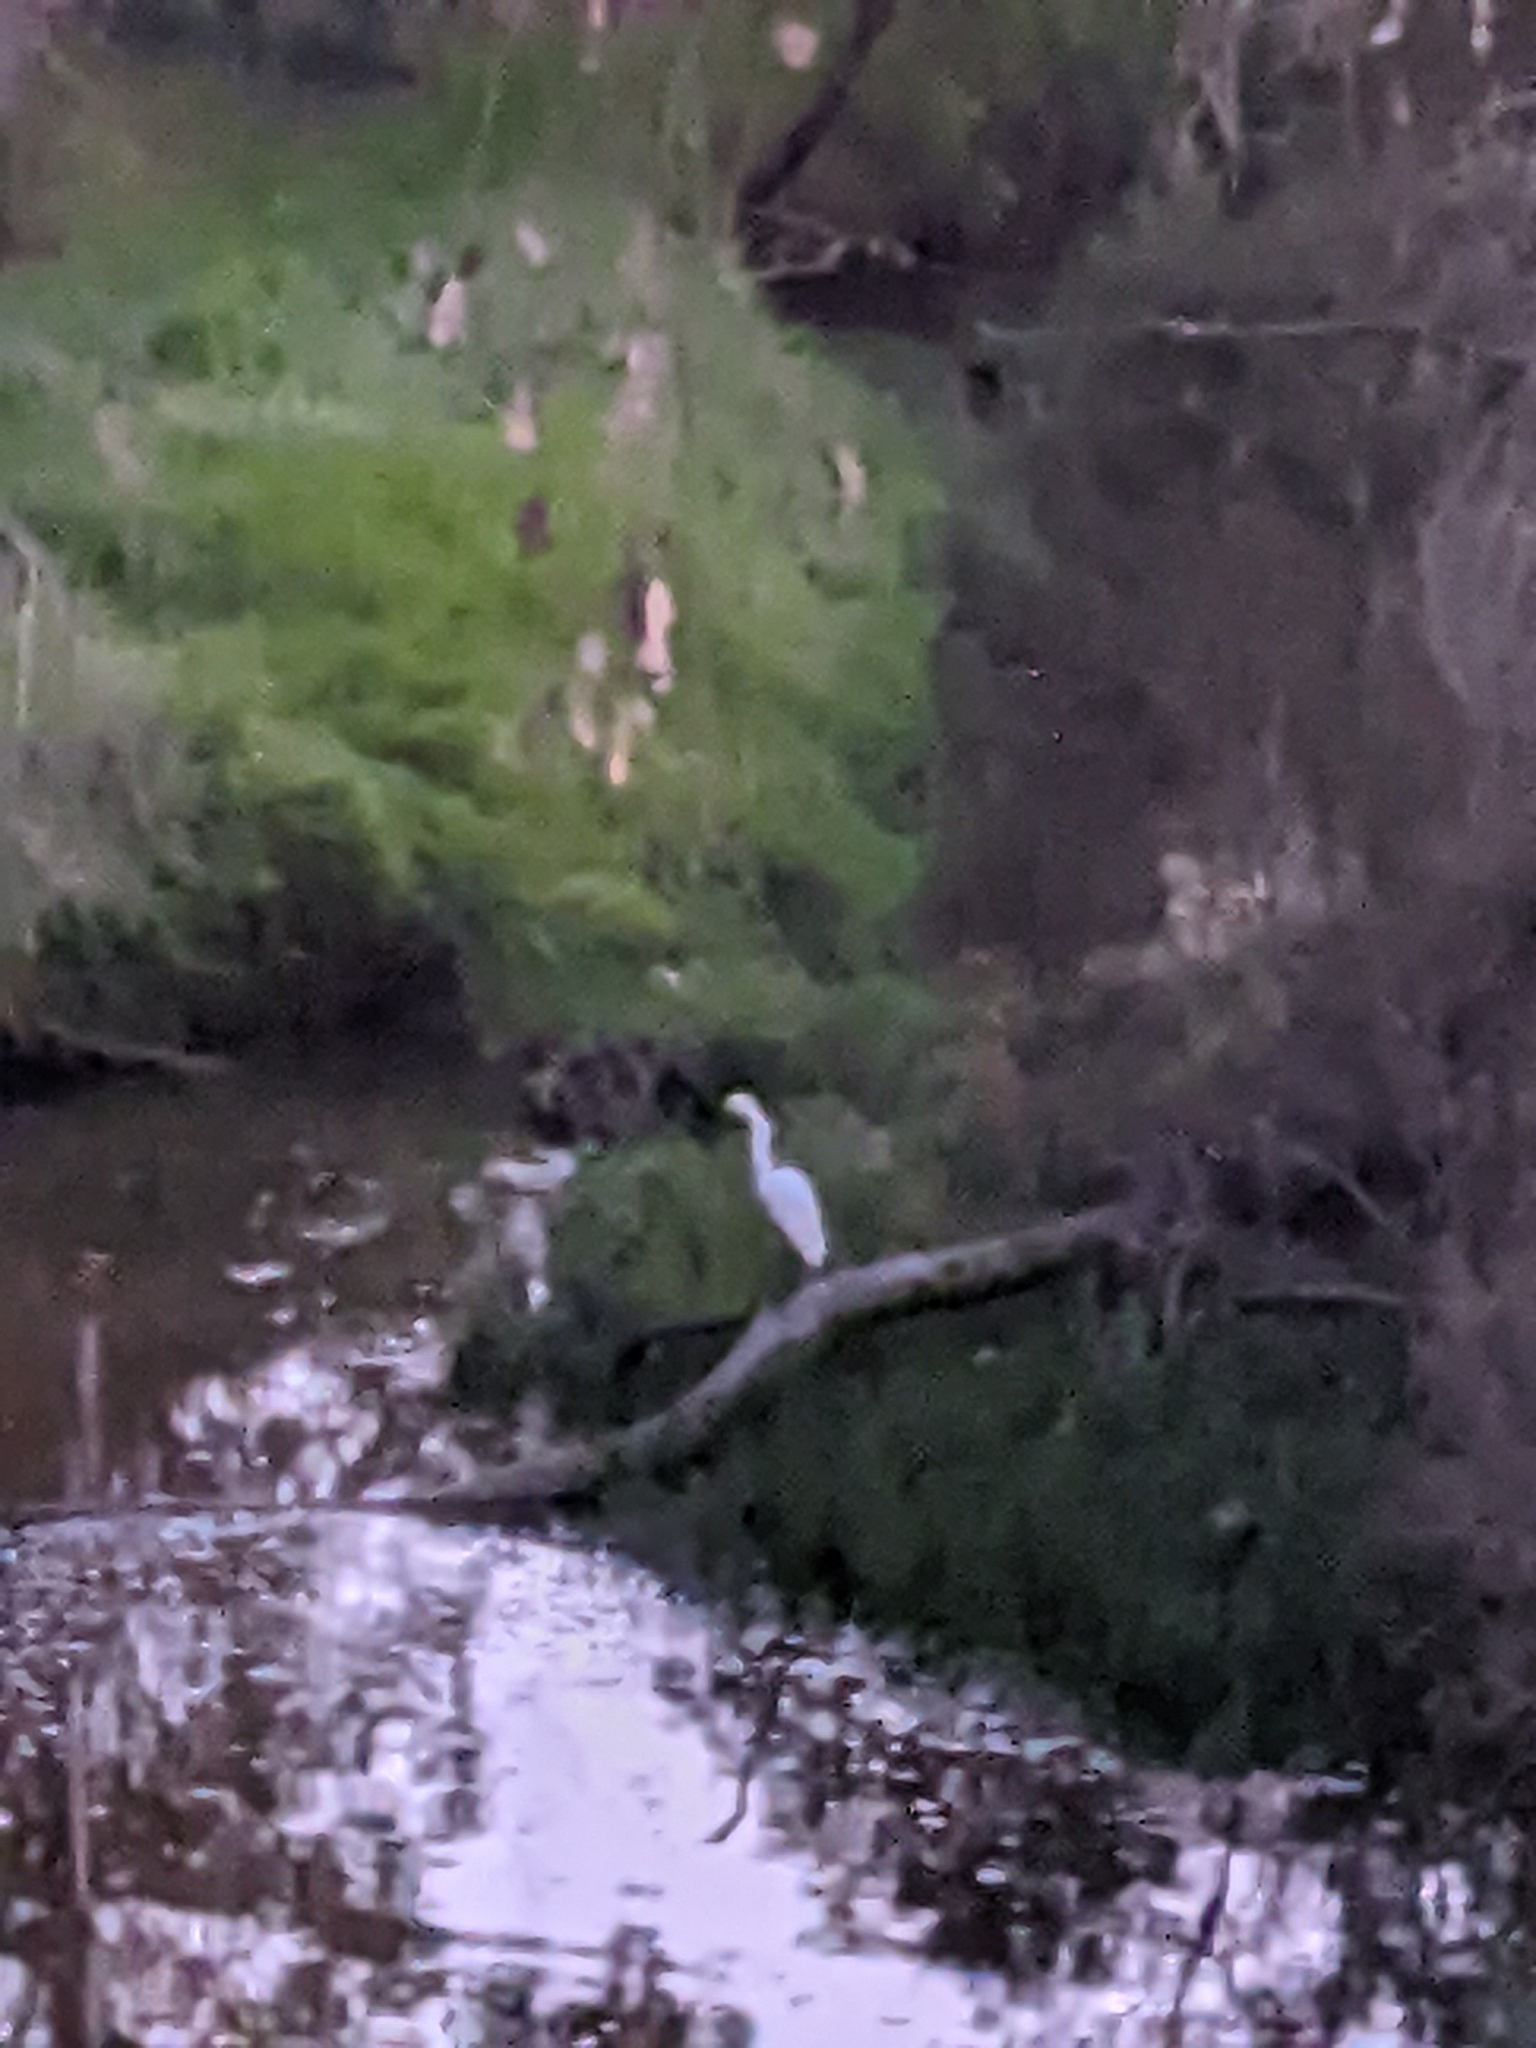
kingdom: Animalia
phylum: Chordata
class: Aves
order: Pelecaniformes
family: Ardeidae
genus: Ardea
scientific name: Ardea alba
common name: Great egret
